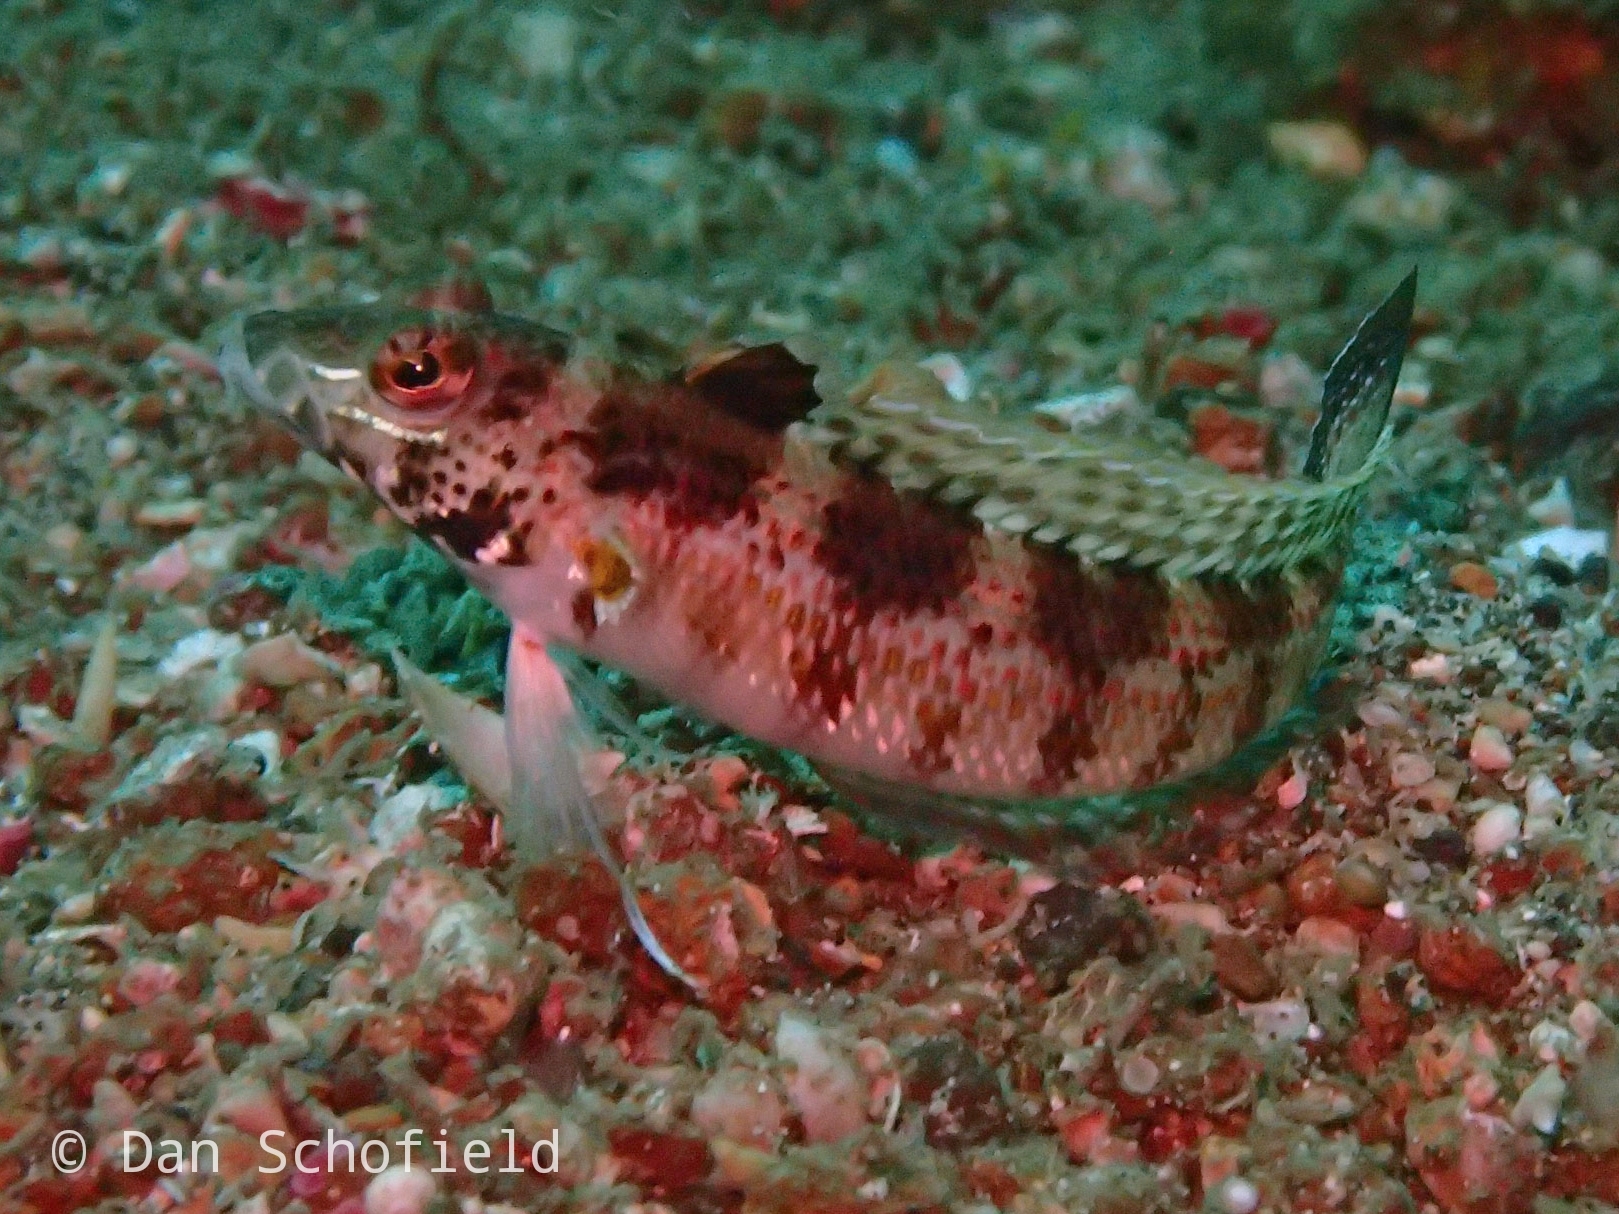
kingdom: Animalia
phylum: Chordata
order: Perciformes
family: Pinguipedidae
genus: Parapercis
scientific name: Parapercis snyderi
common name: U-mark sandperch
